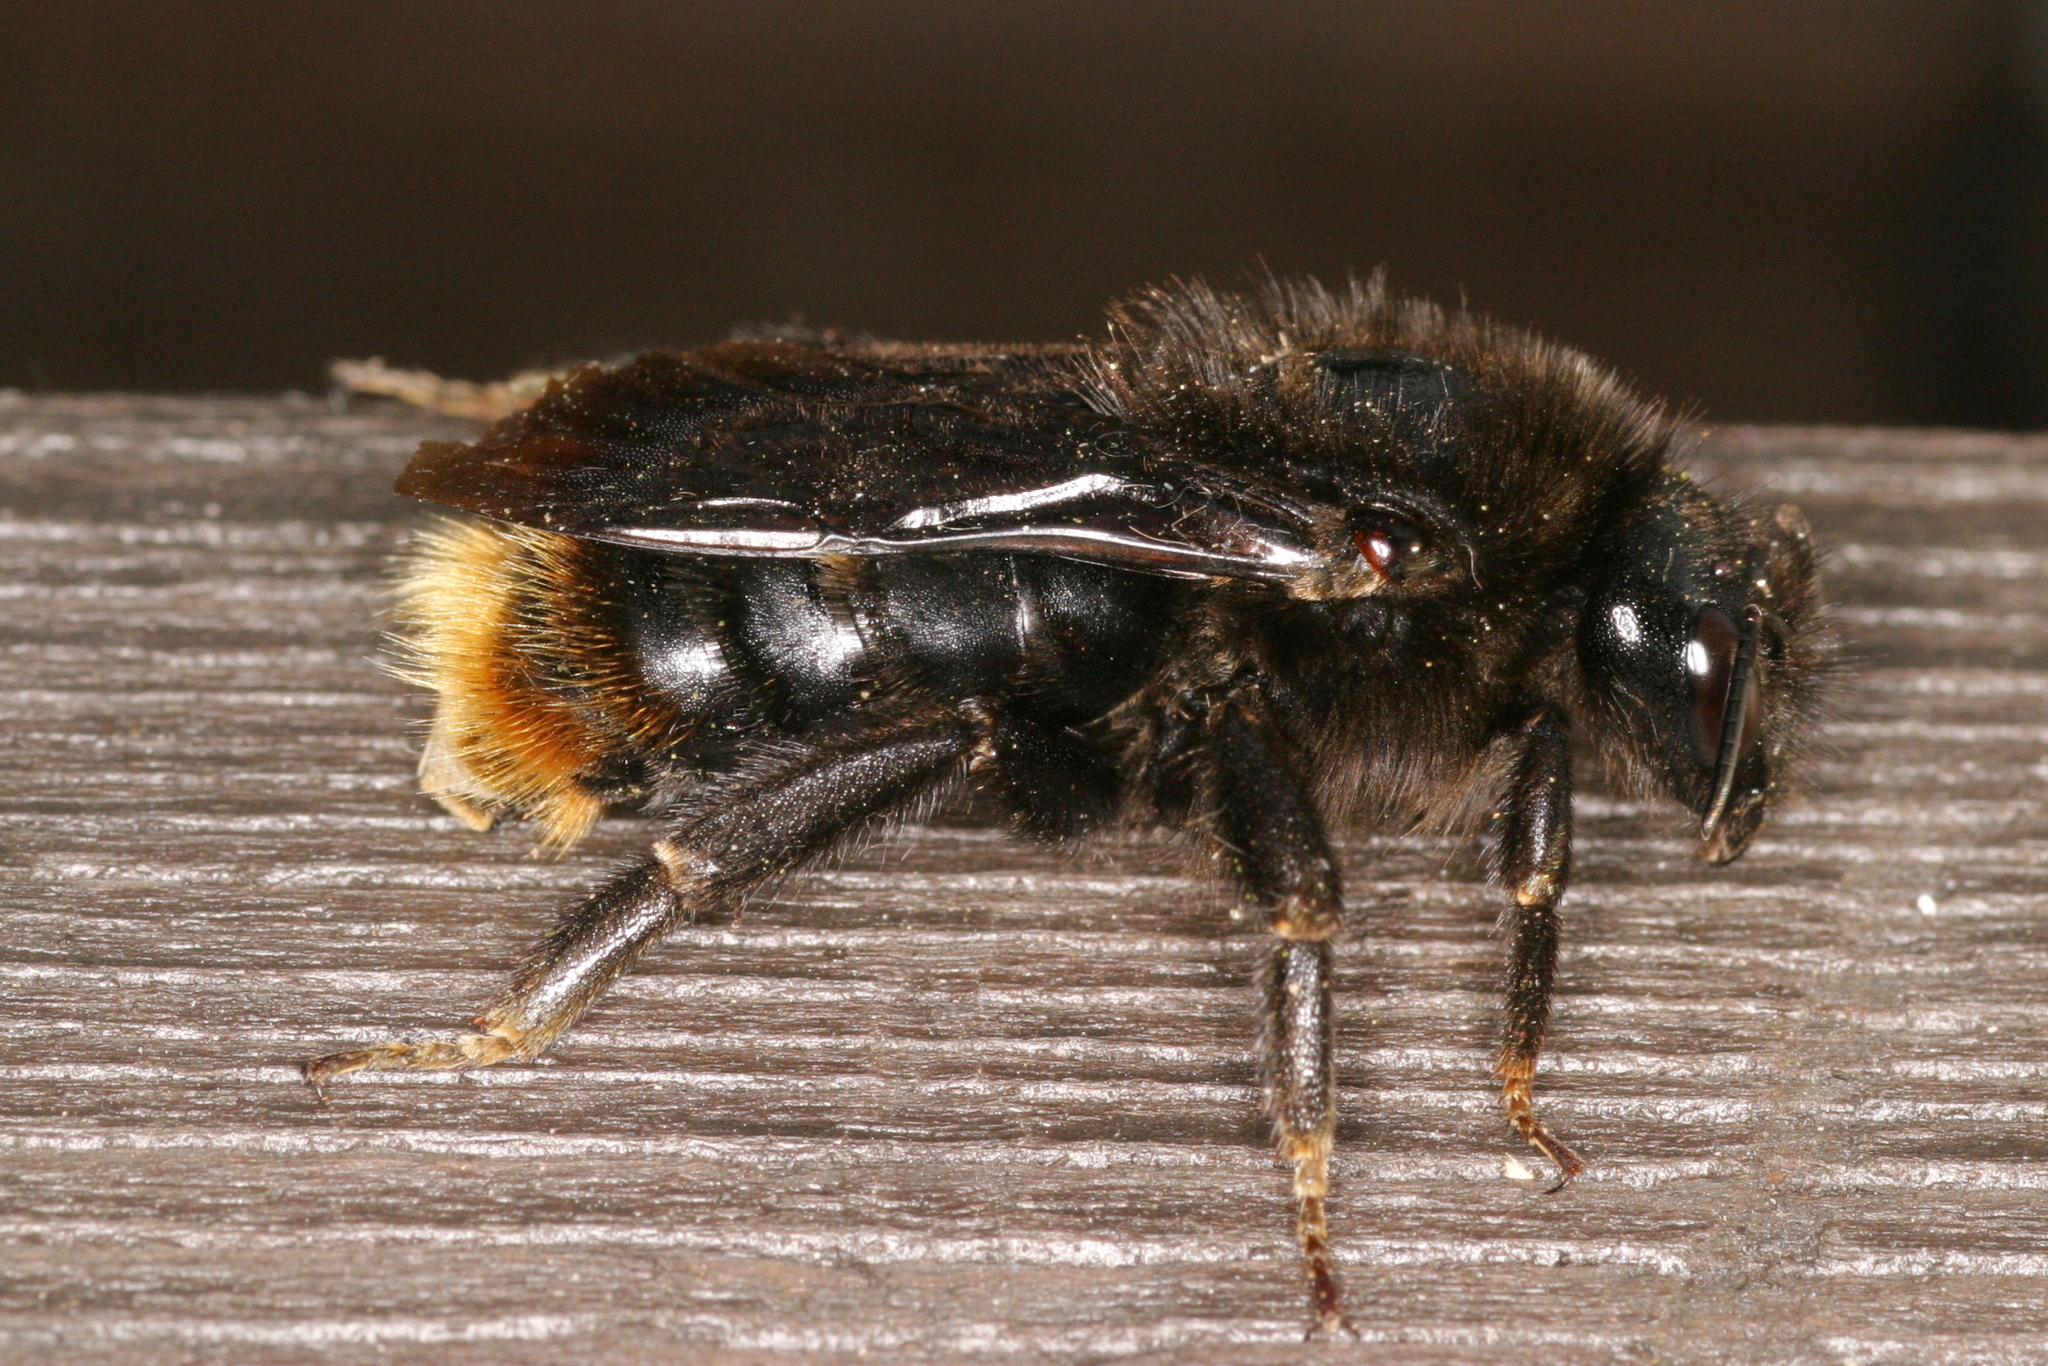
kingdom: Animalia
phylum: Arthropoda
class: Insecta
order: Hymenoptera
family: Apidae
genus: Bombus
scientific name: Bombus rupestris
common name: Hill cuckoo-bee
